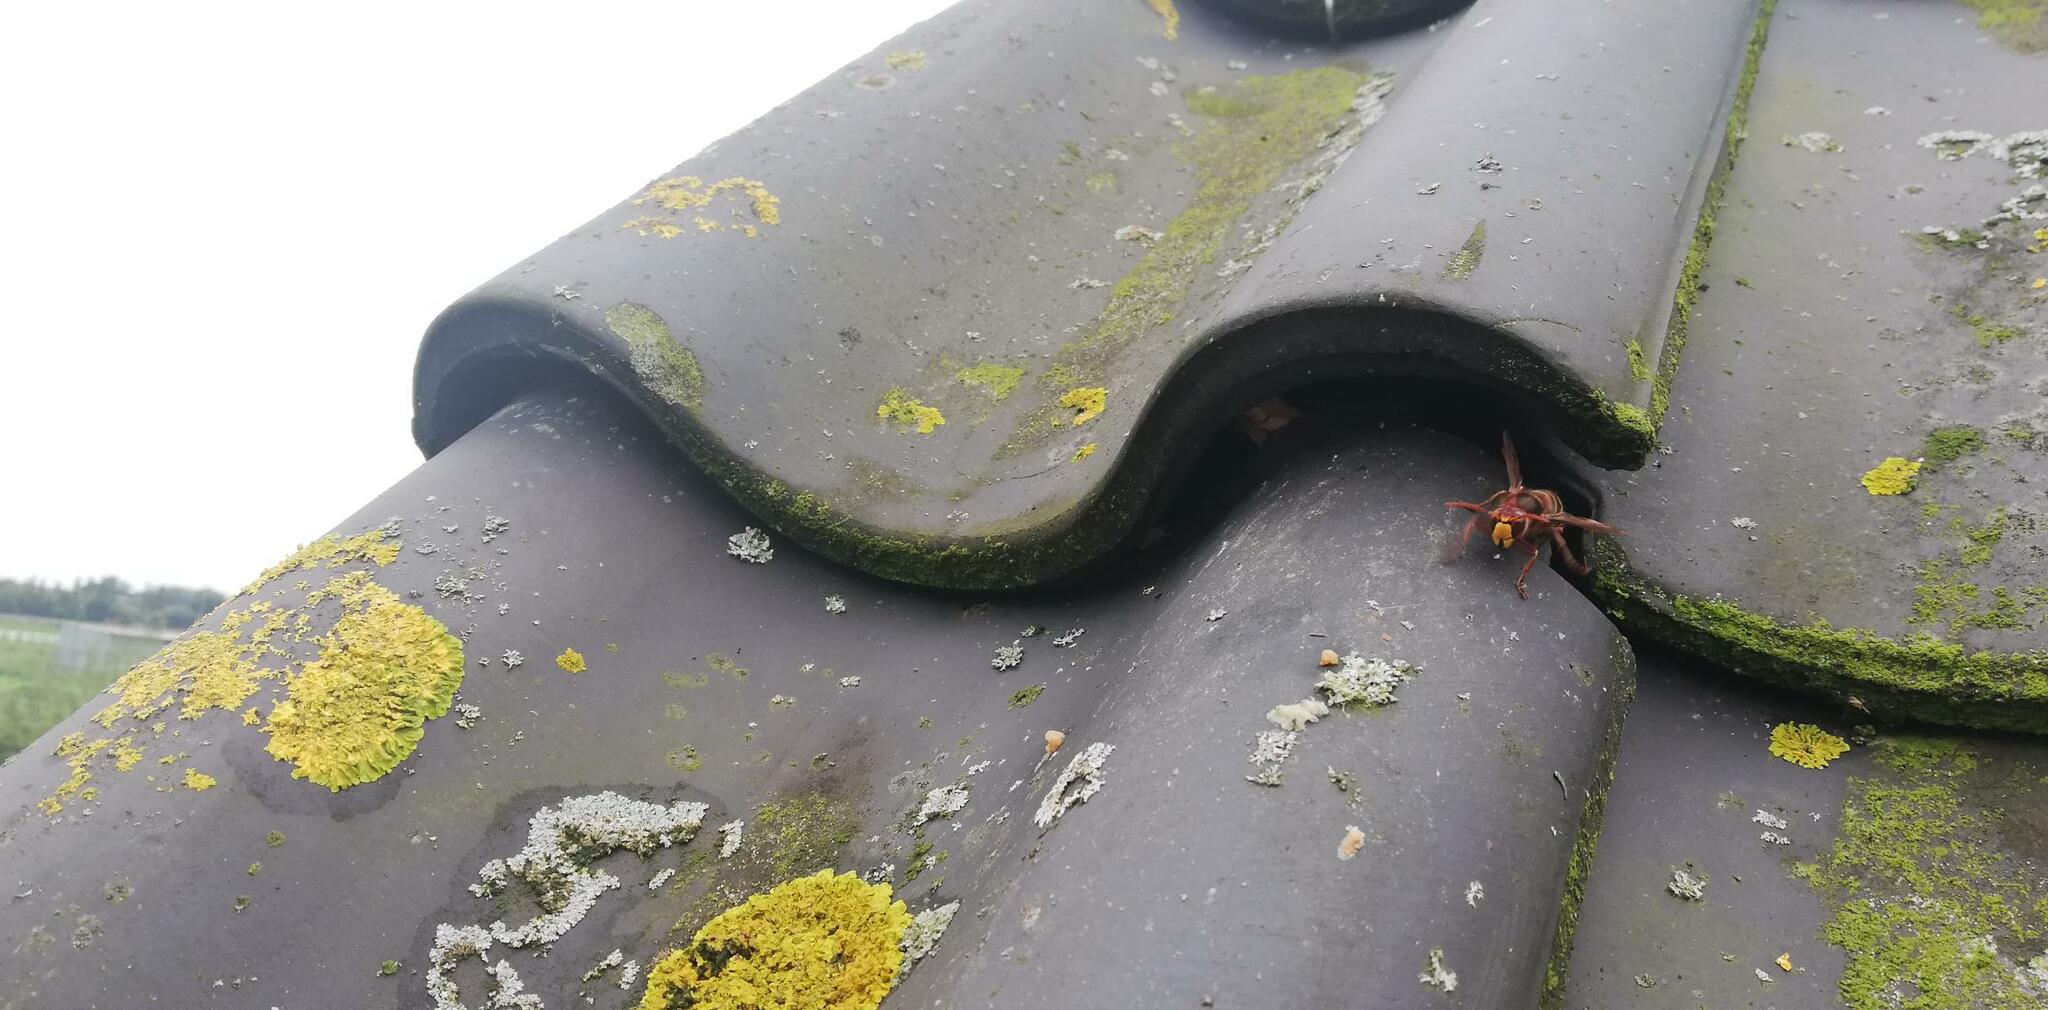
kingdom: Animalia
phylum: Arthropoda
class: Insecta
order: Hymenoptera
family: Vespidae
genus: Vespa
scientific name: Vespa crabro
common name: Hornet
